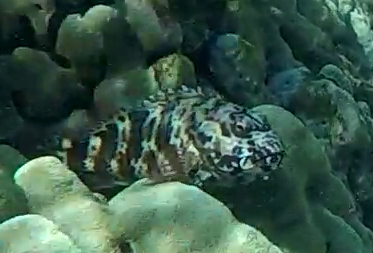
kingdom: Animalia
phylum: Chordata
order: Perciformes
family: Cirrhitidae
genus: Cirrhitus
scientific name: Cirrhitus pinnulatus
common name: Stocky hawkfish
